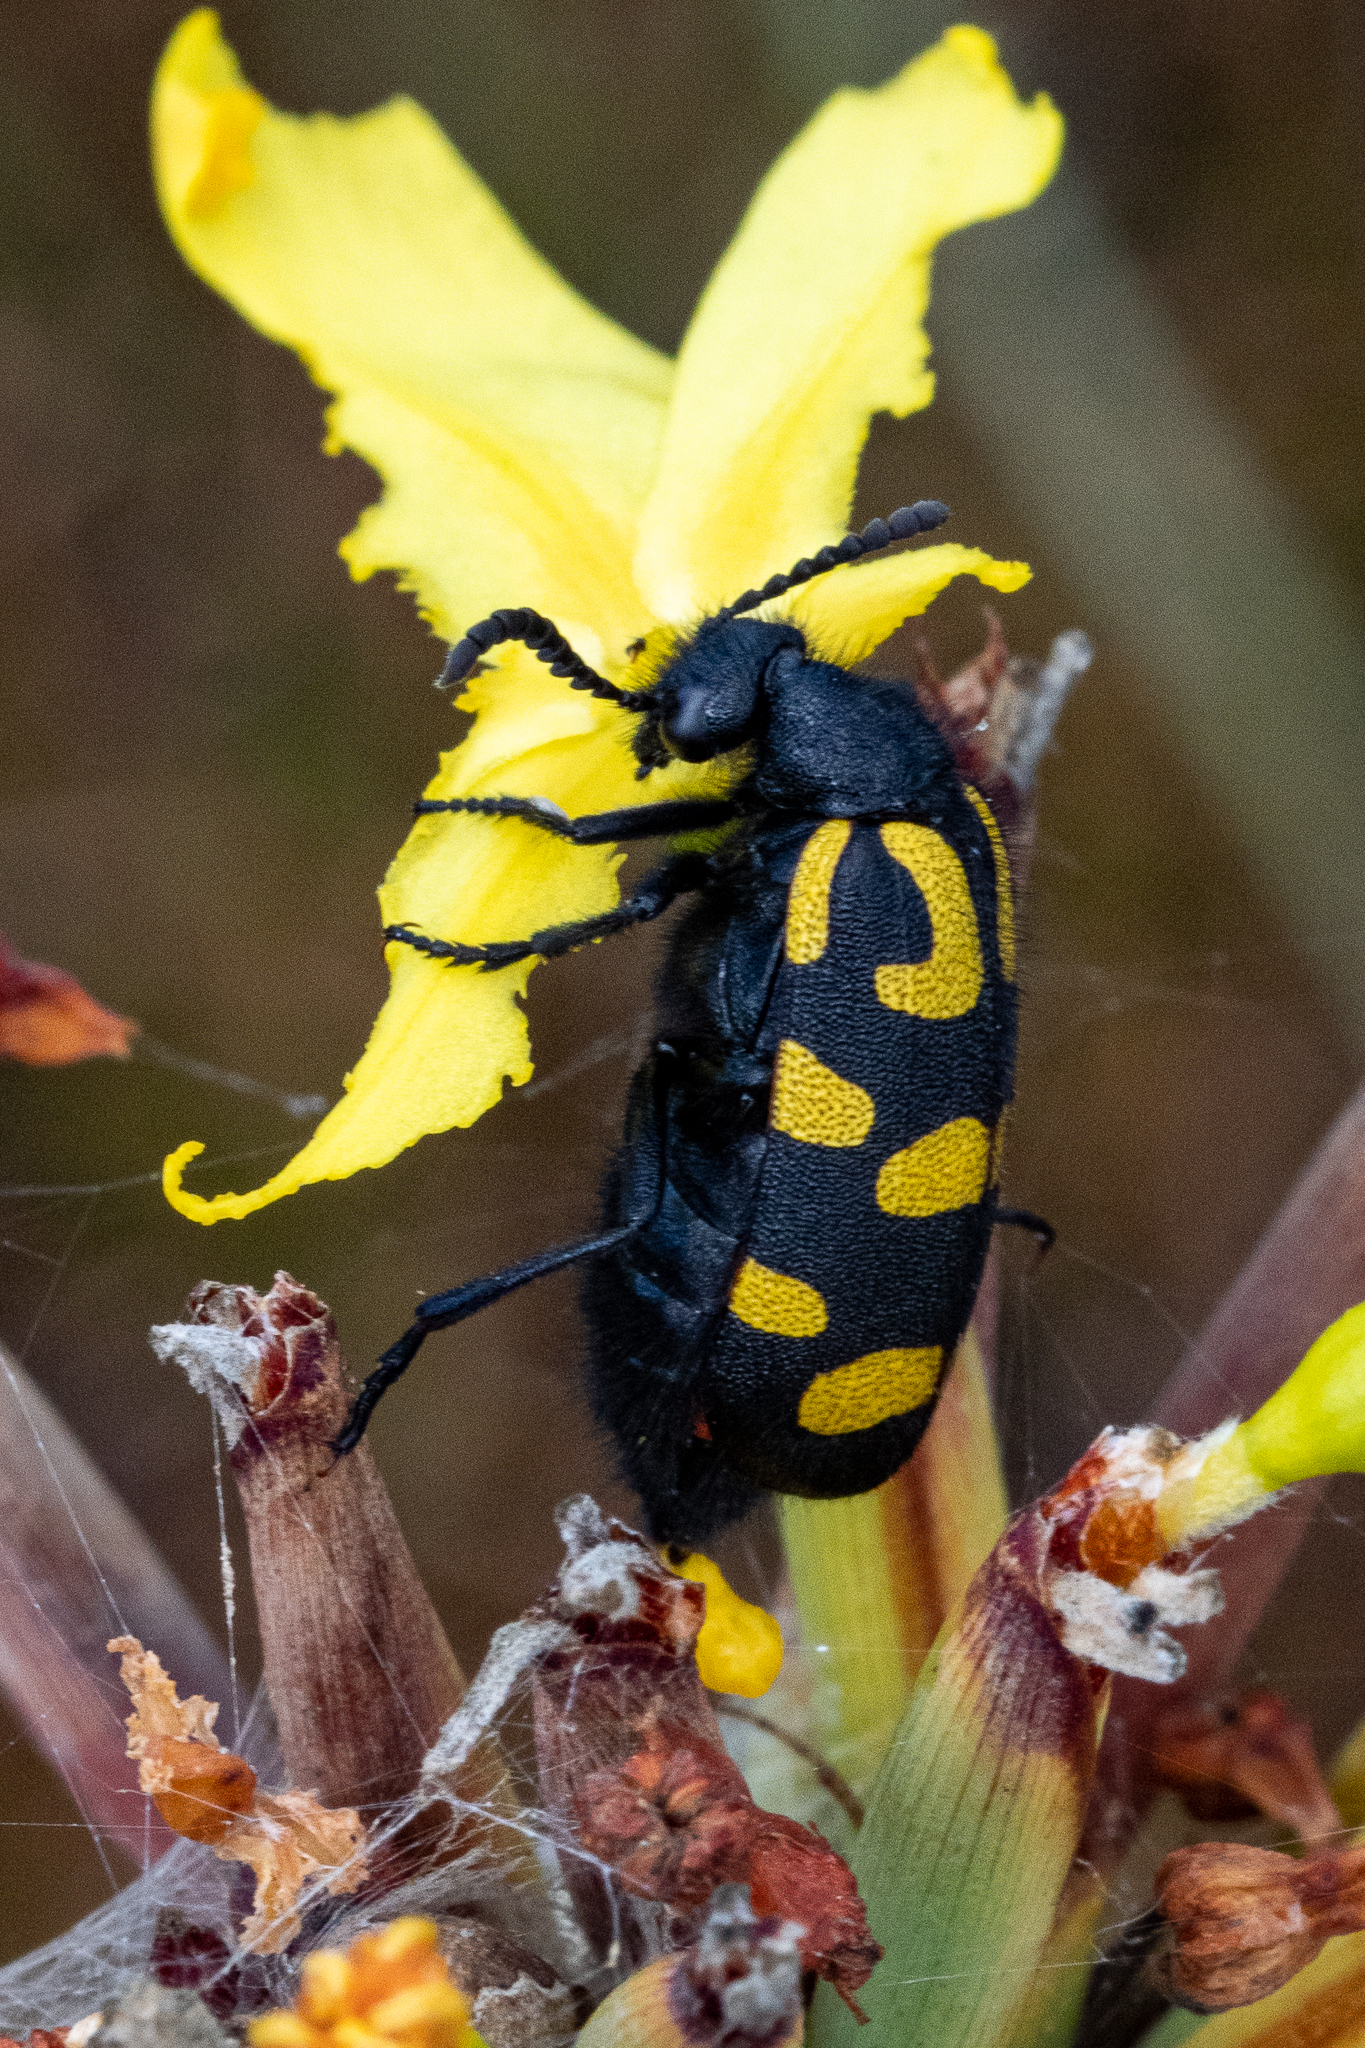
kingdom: Animalia
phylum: Arthropoda
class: Insecta
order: Coleoptera
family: Meloidae
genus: Ceroctis
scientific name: Ceroctis capensis
